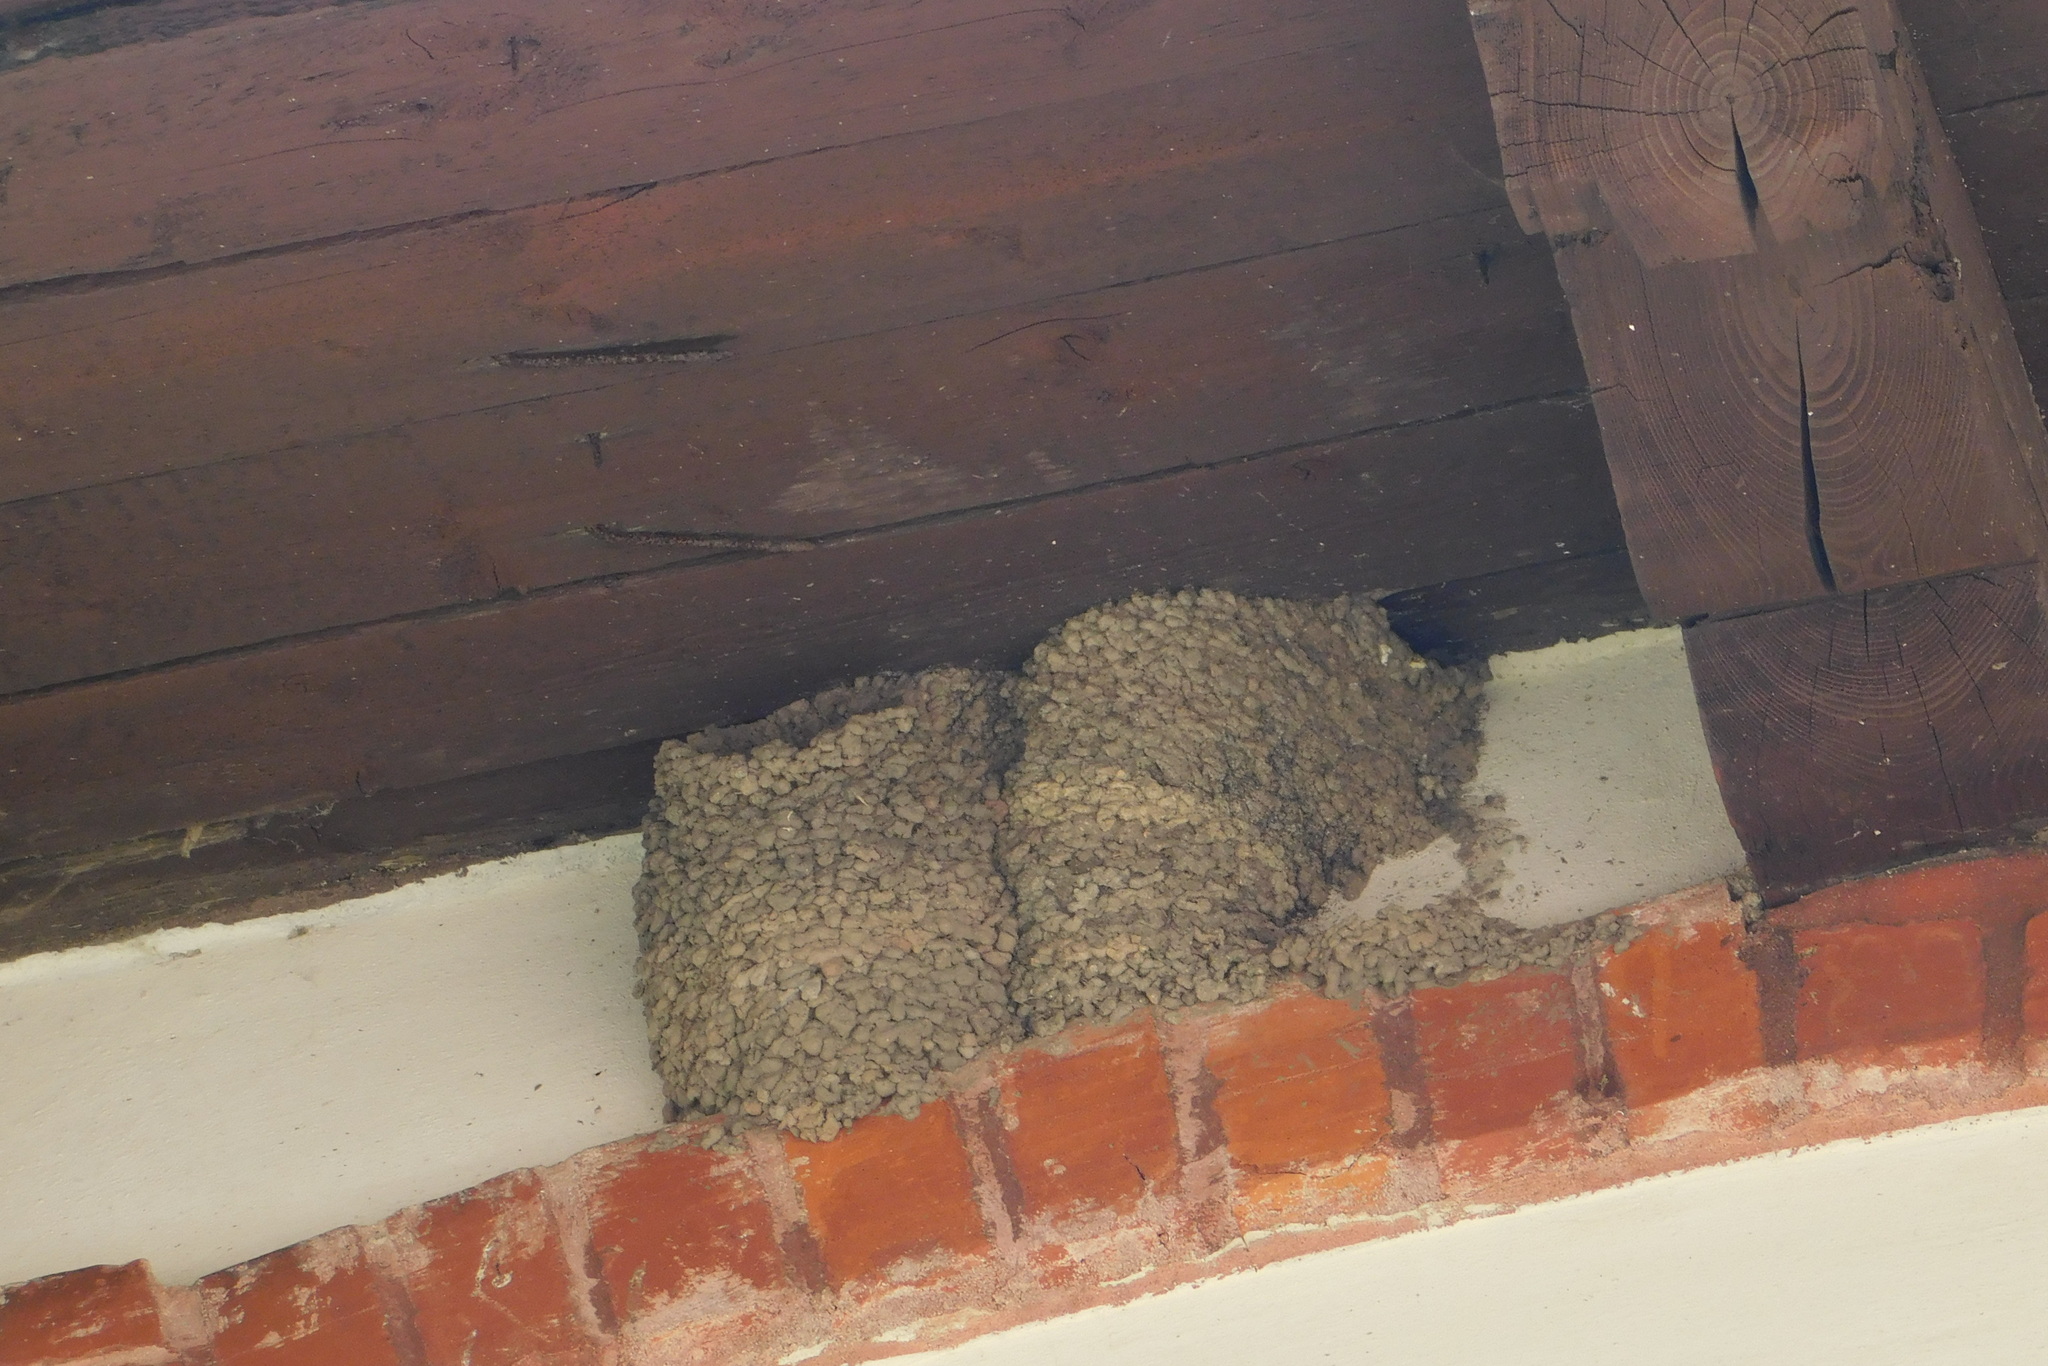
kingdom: Animalia
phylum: Chordata
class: Aves
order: Passeriformes
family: Hirundinidae
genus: Delichon
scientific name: Delichon urbicum
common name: Common house martin
